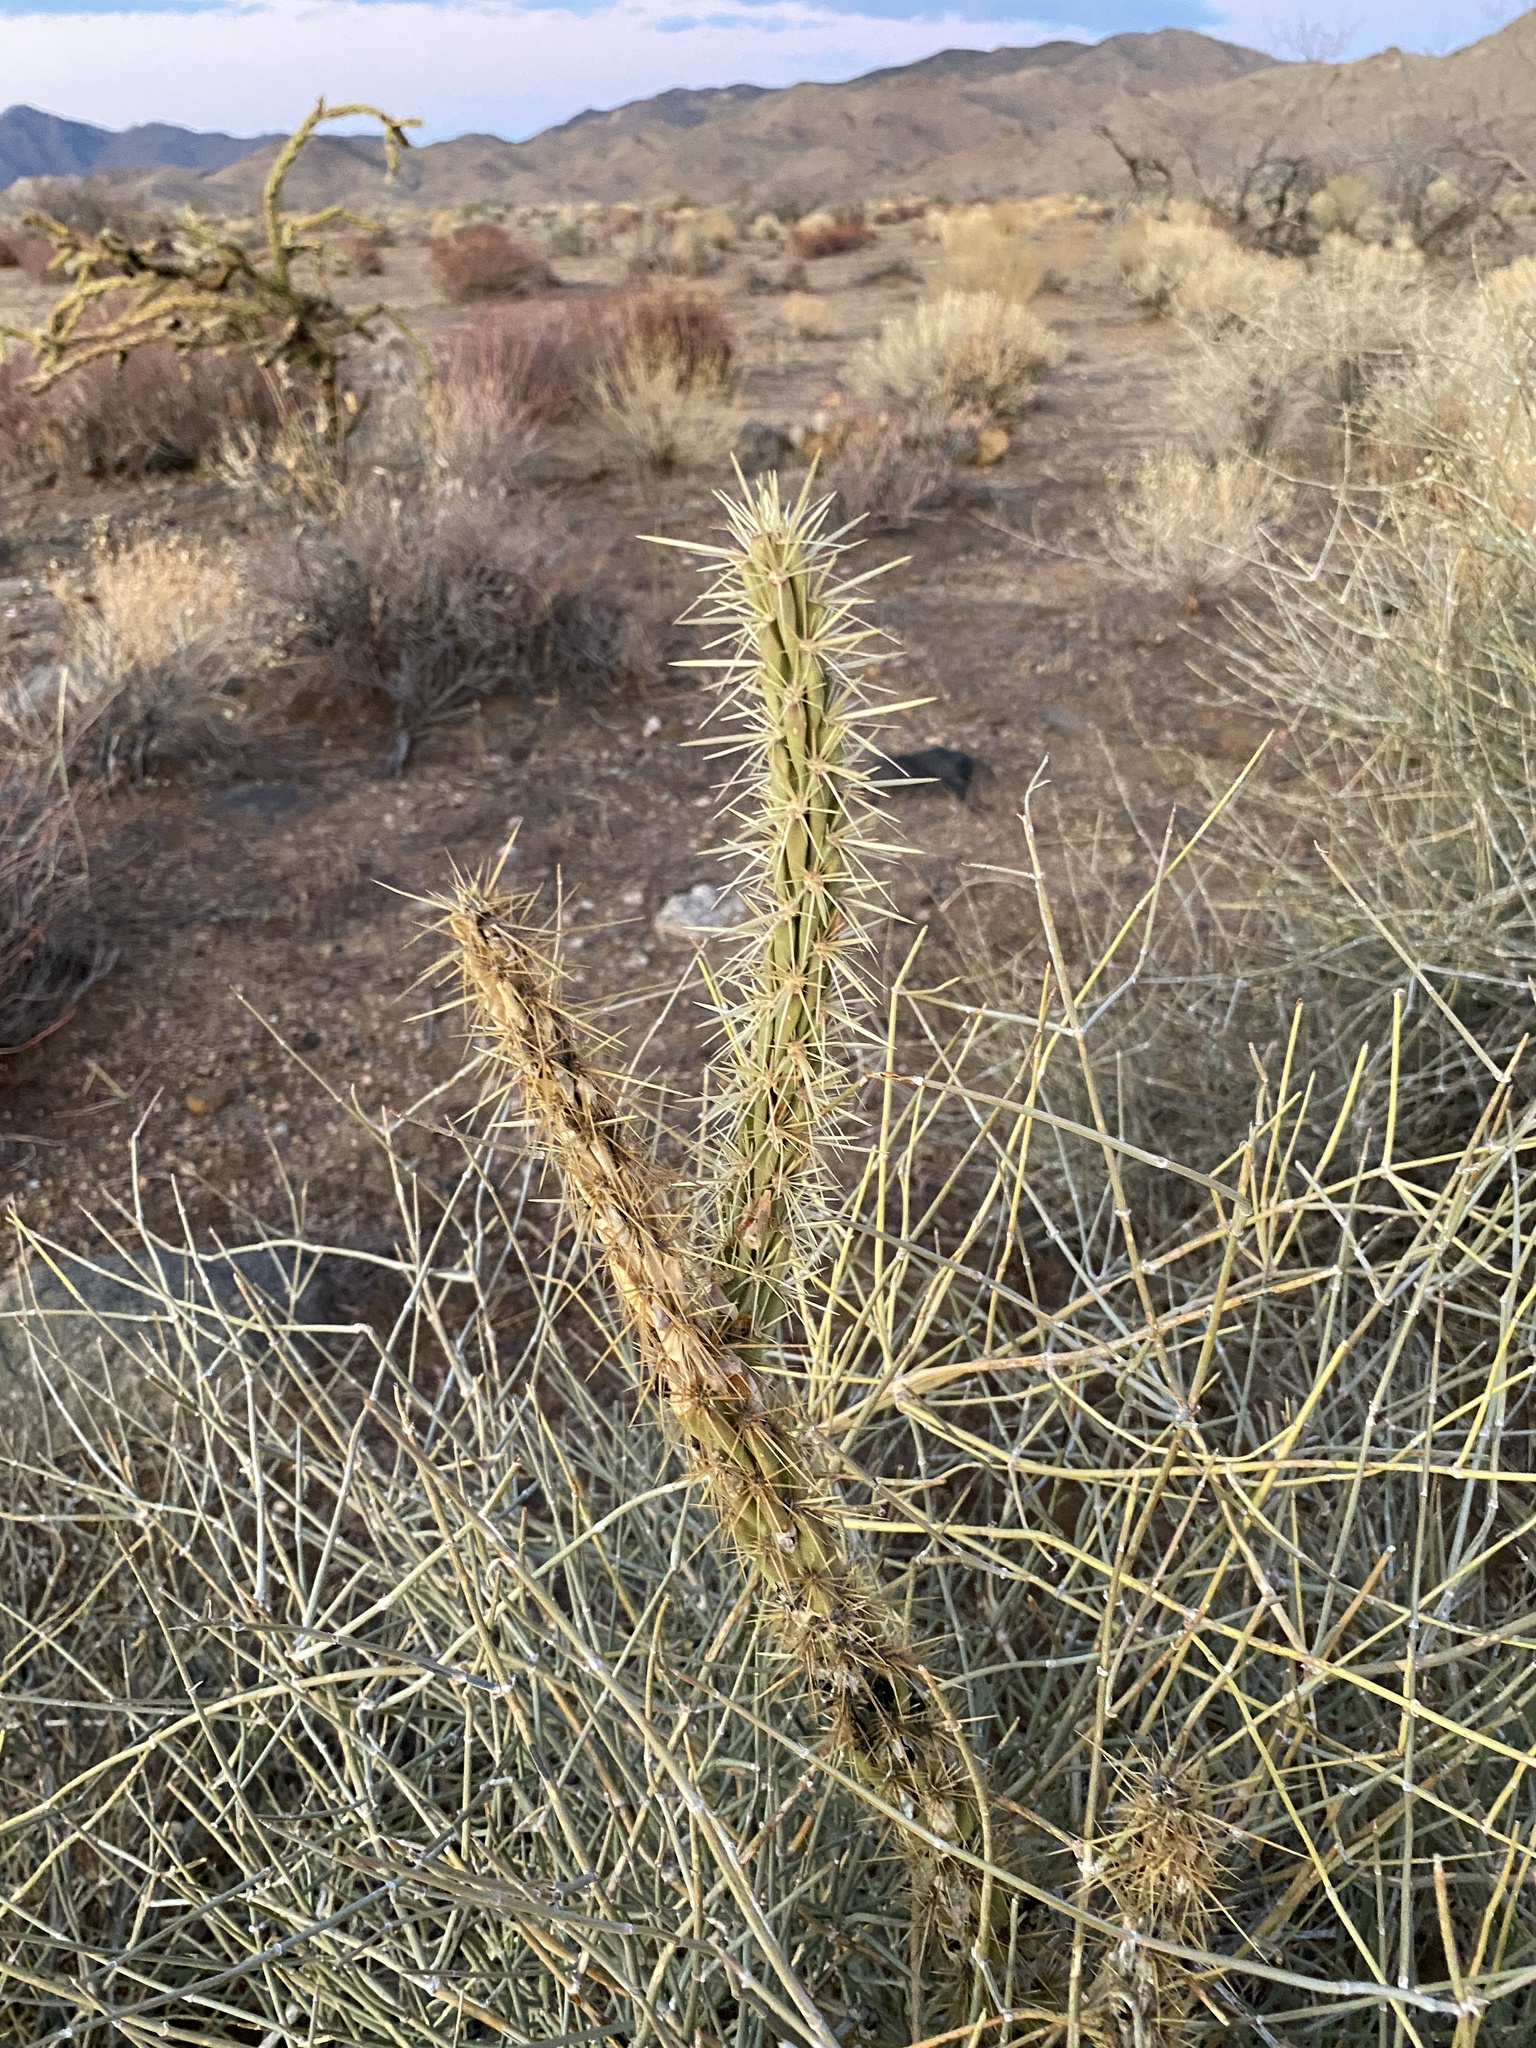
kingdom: Plantae
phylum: Tracheophyta
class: Magnoliopsida
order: Caryophyllales
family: Cactaceae
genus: Cylindropuntia
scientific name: Cylindropuntia acanthocarpa
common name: Buckhorn cholla
